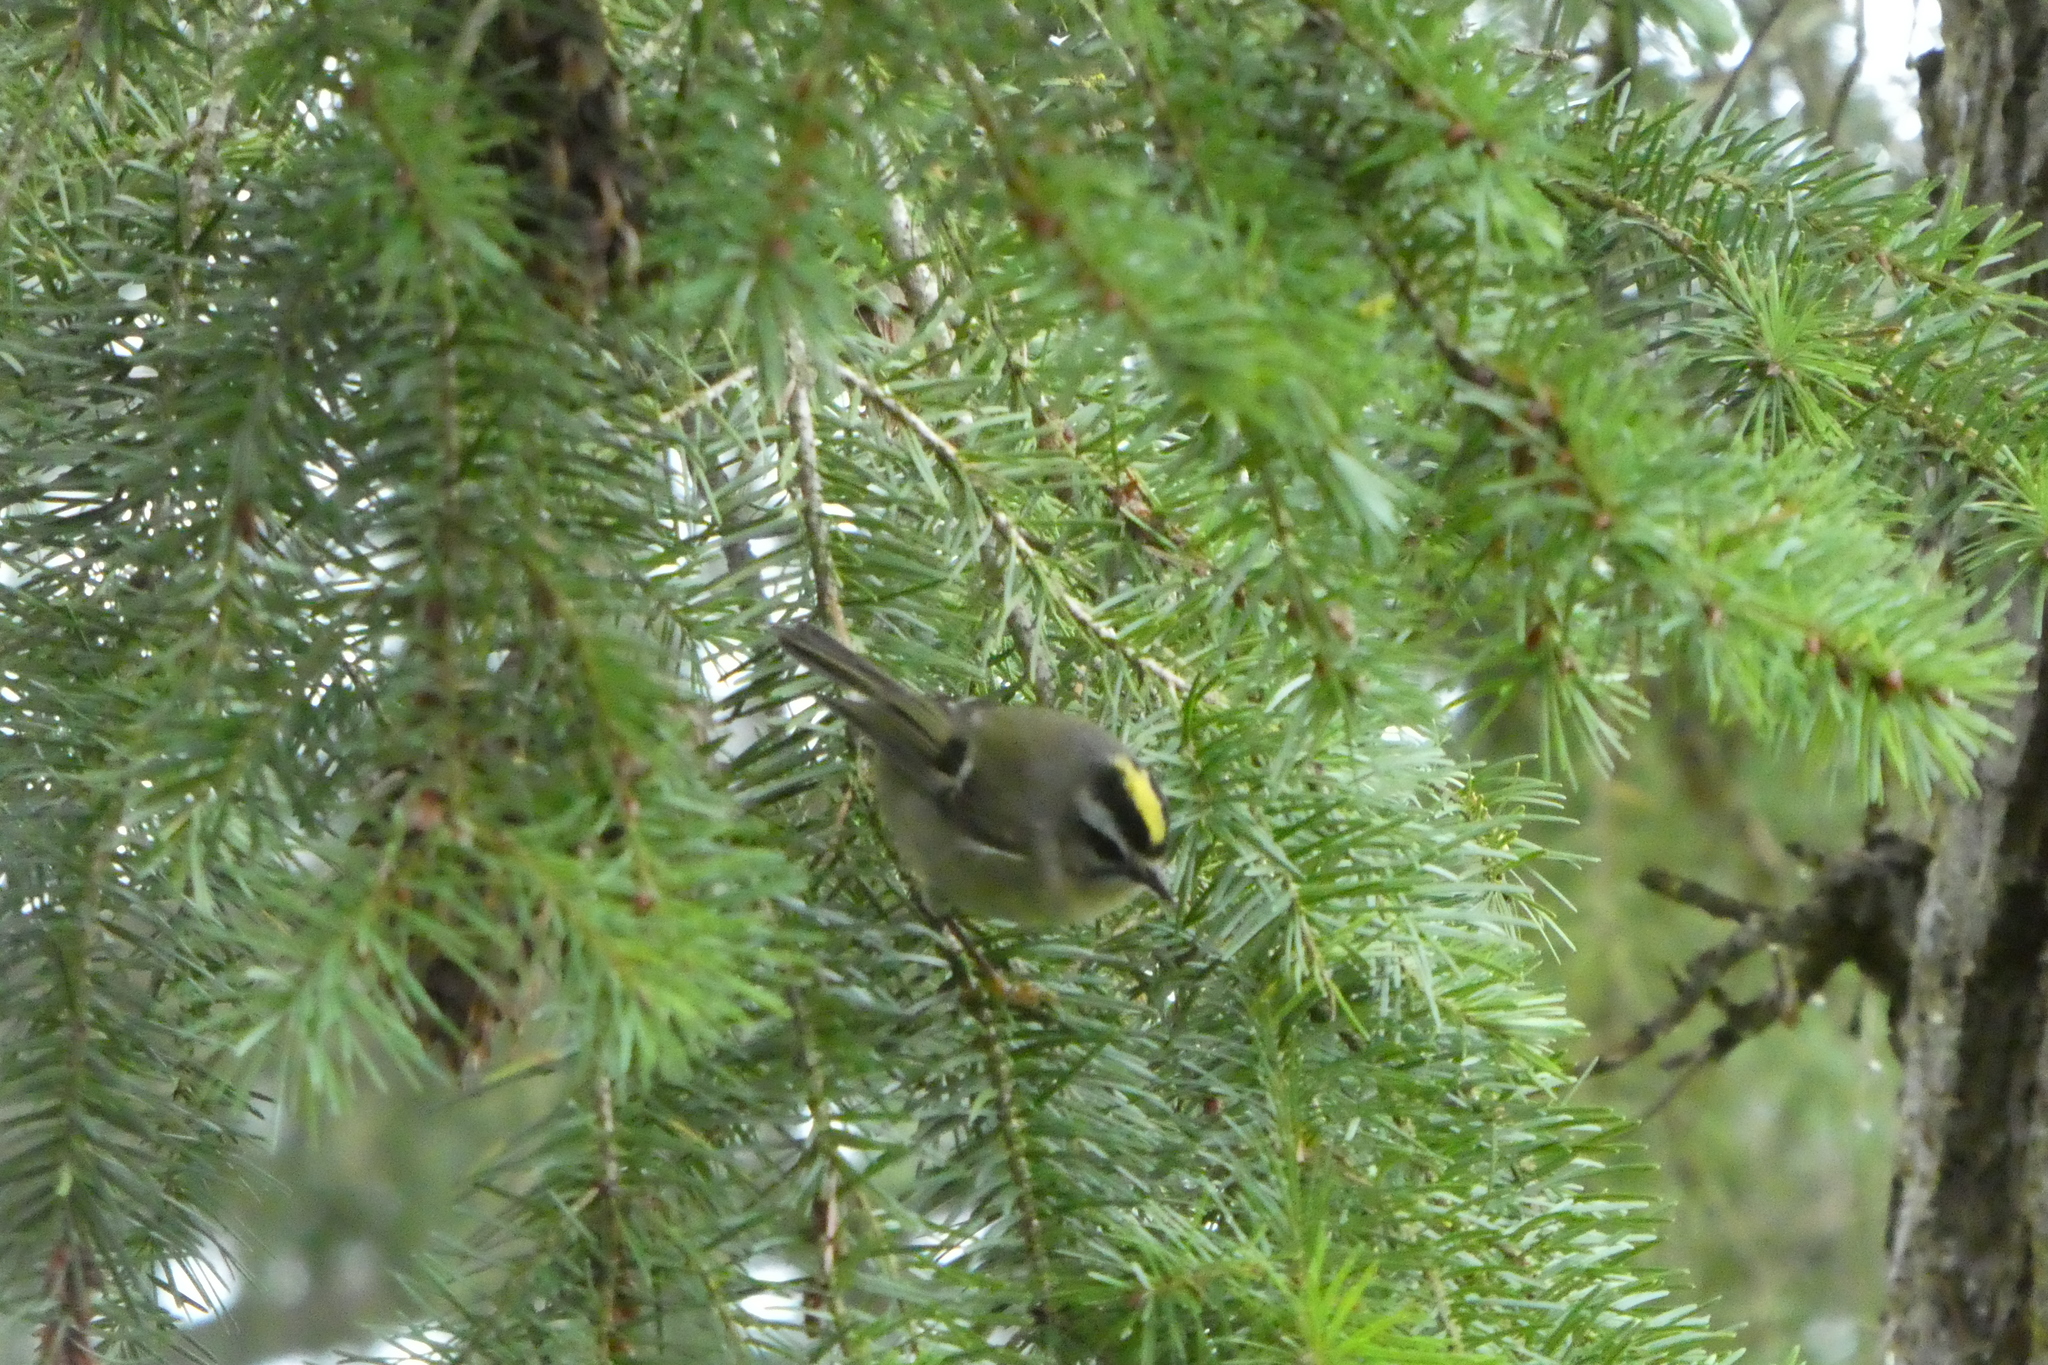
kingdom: Animalia
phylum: Chordata
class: Aves
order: Passeriformes
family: Regulidae
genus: Regulus
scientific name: Regulus satrapa
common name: Golden-crowned kinglet
